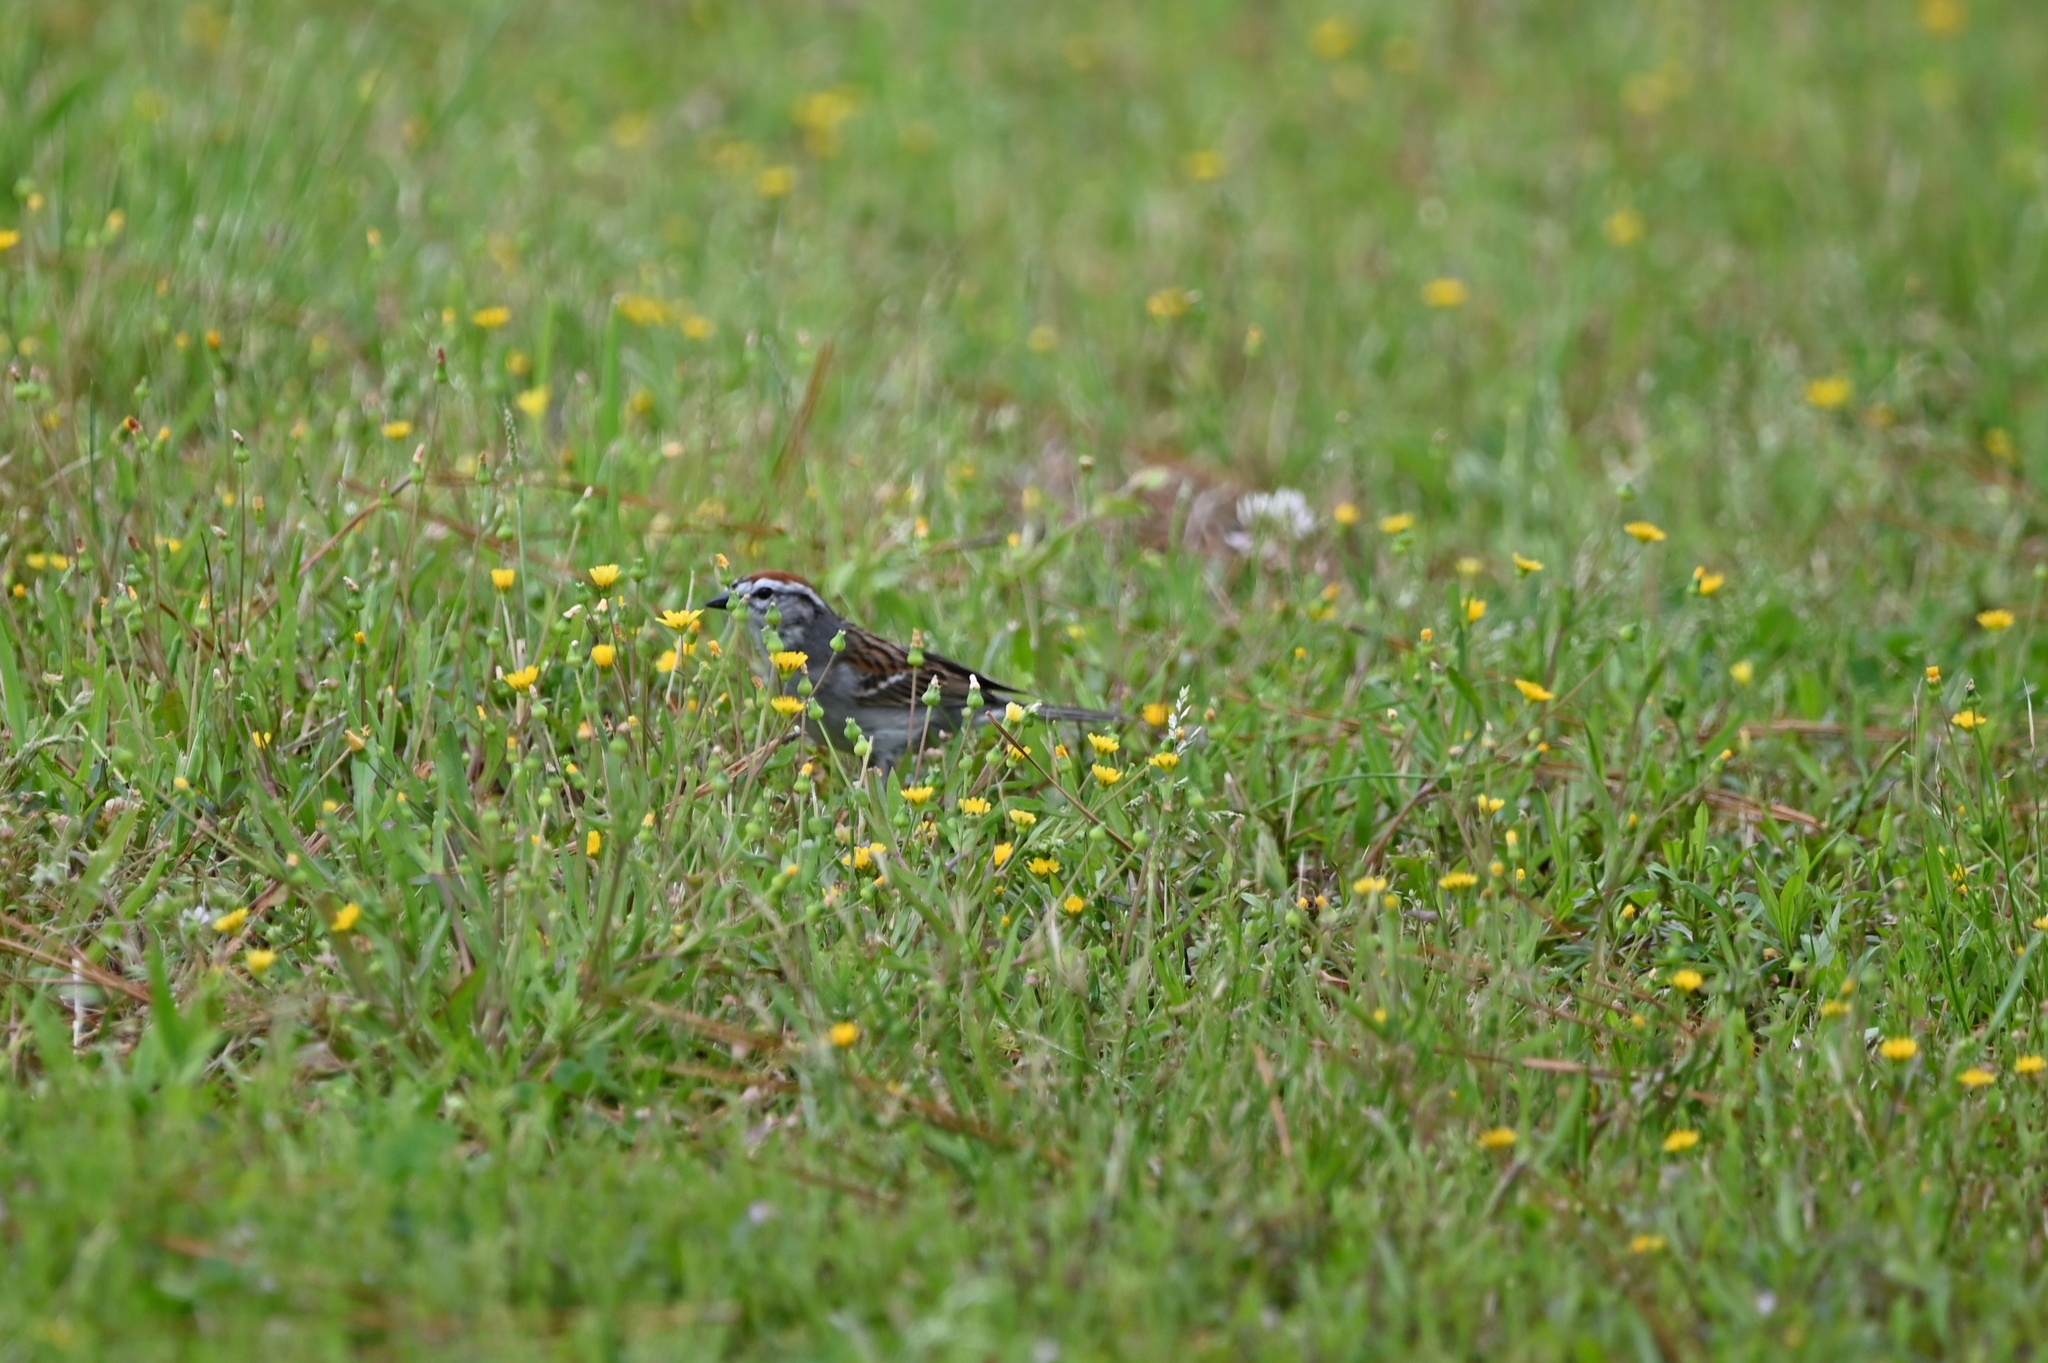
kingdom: Animalia
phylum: Chordata
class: Aves
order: Passeriformes
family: Passerellidae
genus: Spizella
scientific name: Spizella passerina
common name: Chipping sparrow
